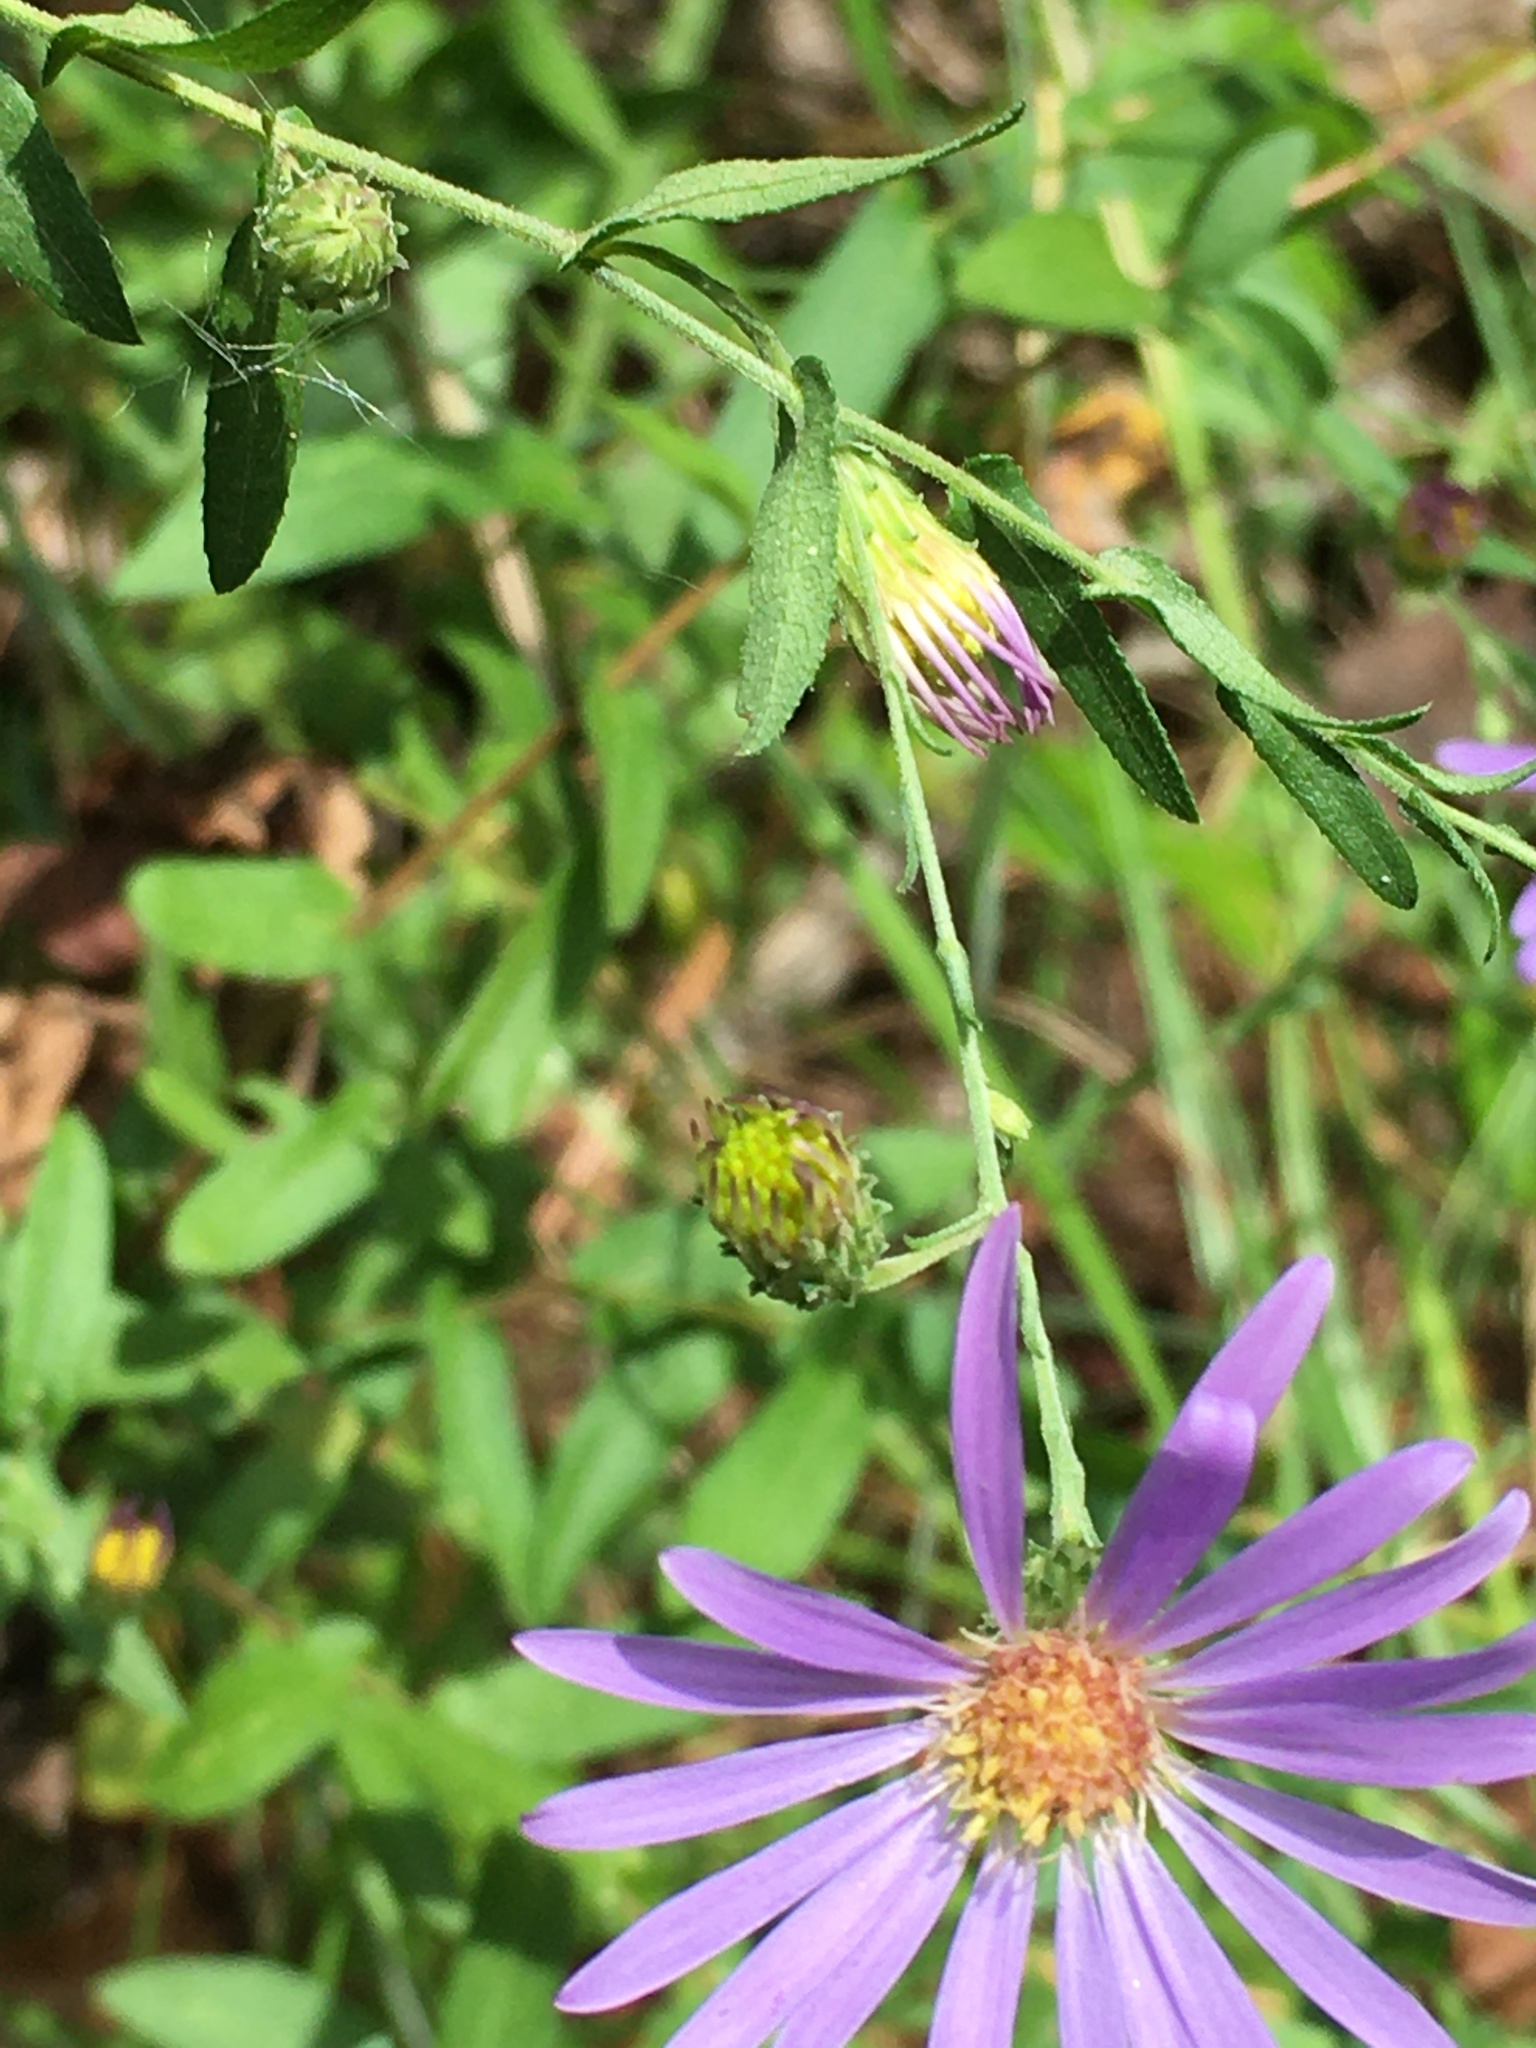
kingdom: Plantae
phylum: Tracheophyta
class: Magnoliopsida
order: Asterales
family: Asteraceae
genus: Symphyotrichum
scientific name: Symphyotrichum patens
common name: Late purple aster
